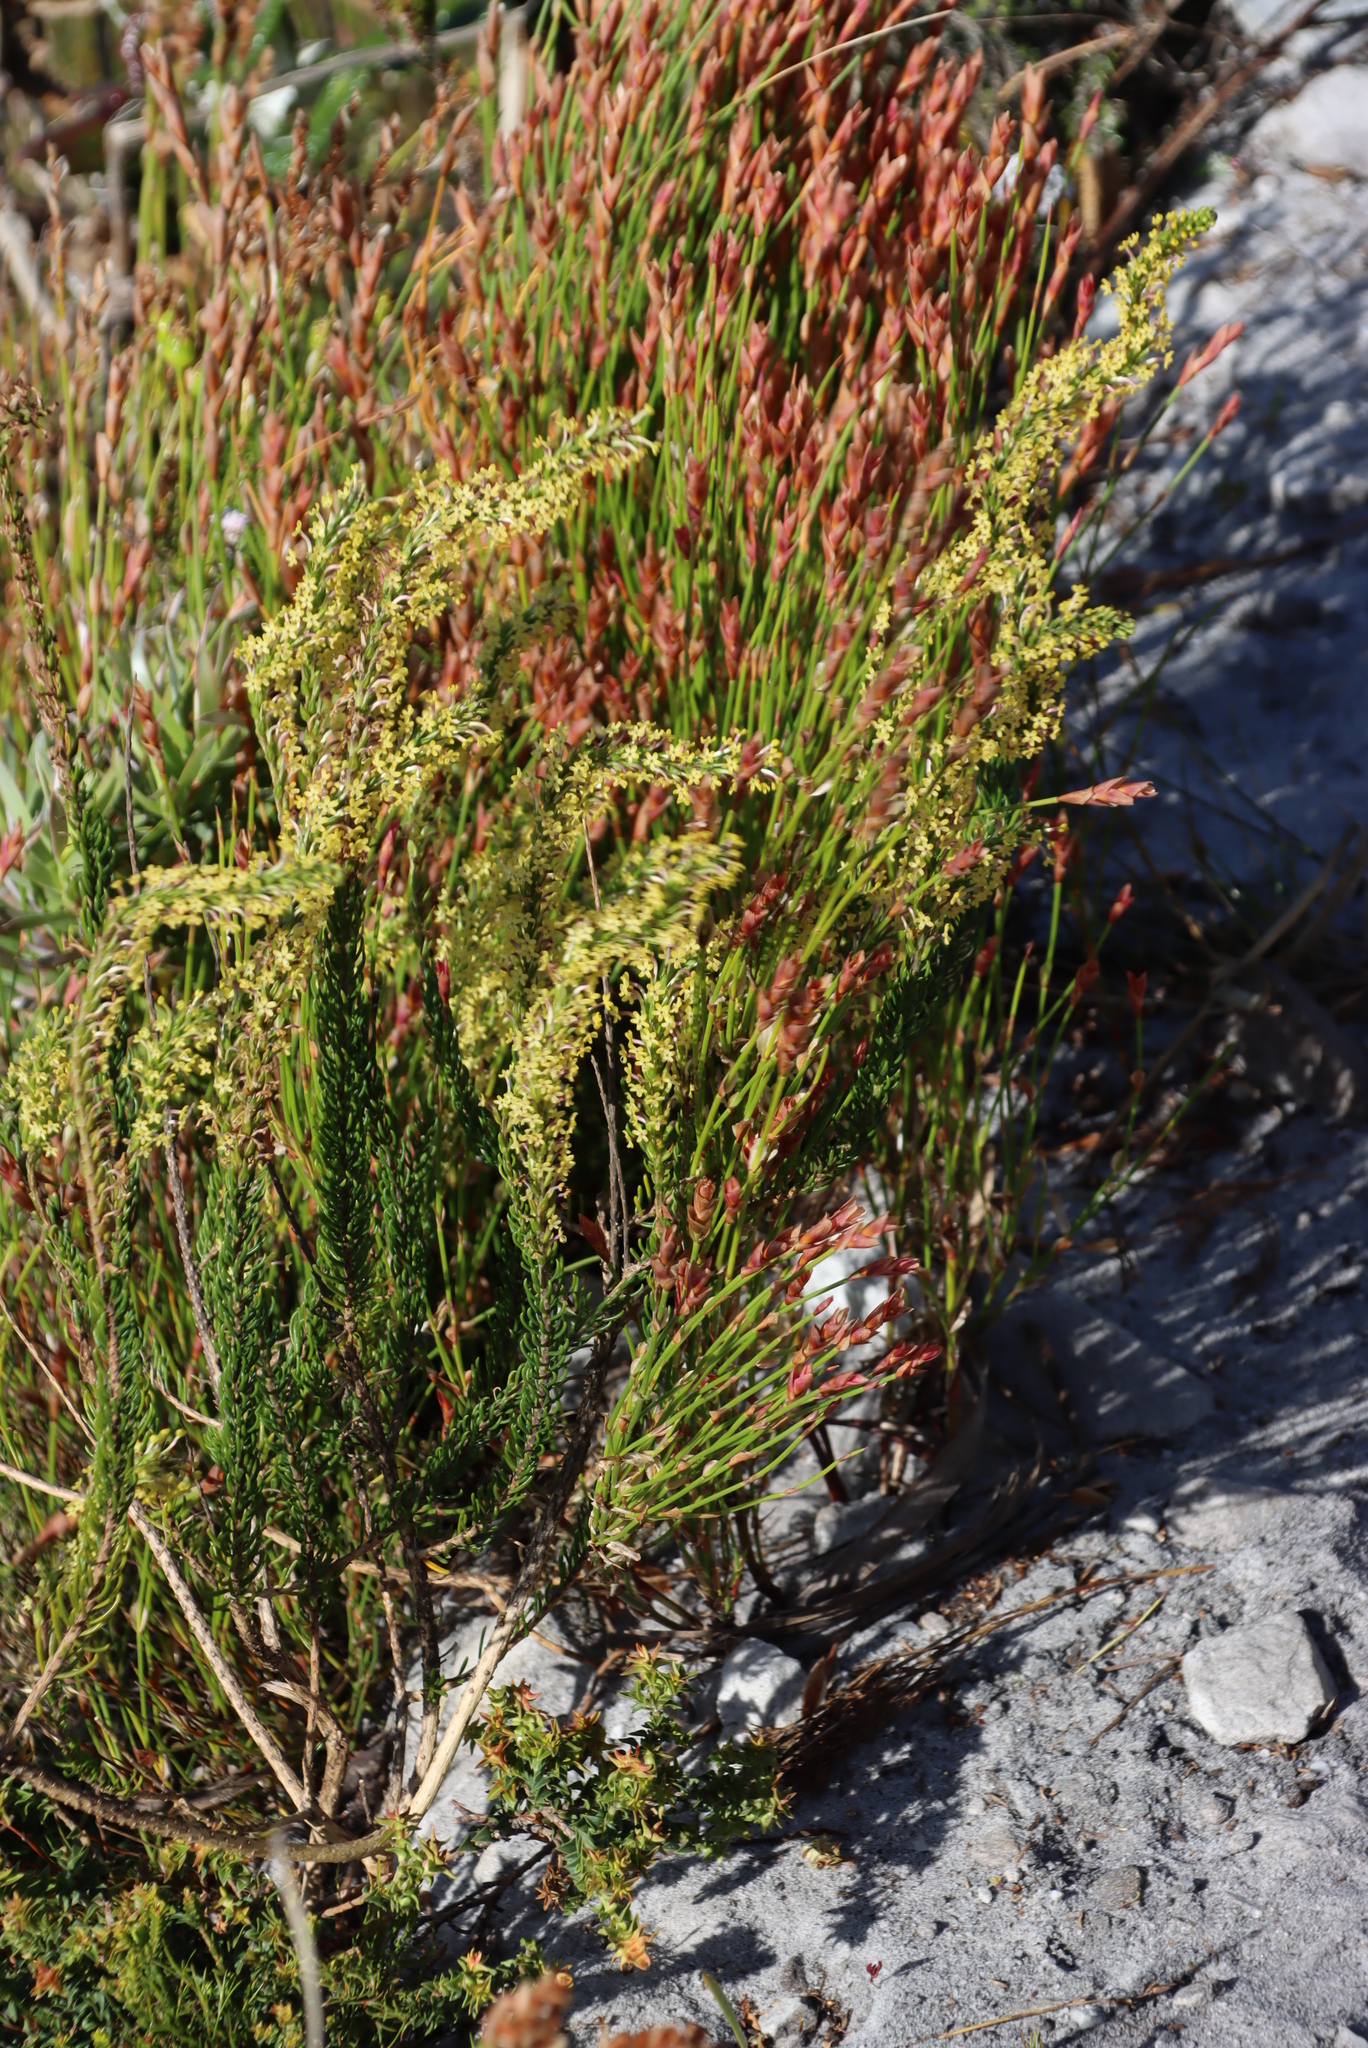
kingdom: Plantae
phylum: Tracheophyta
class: Magnoliopsida
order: Lamiales
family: Scrophulariaceae
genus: Microdon
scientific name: Microdon dubius
